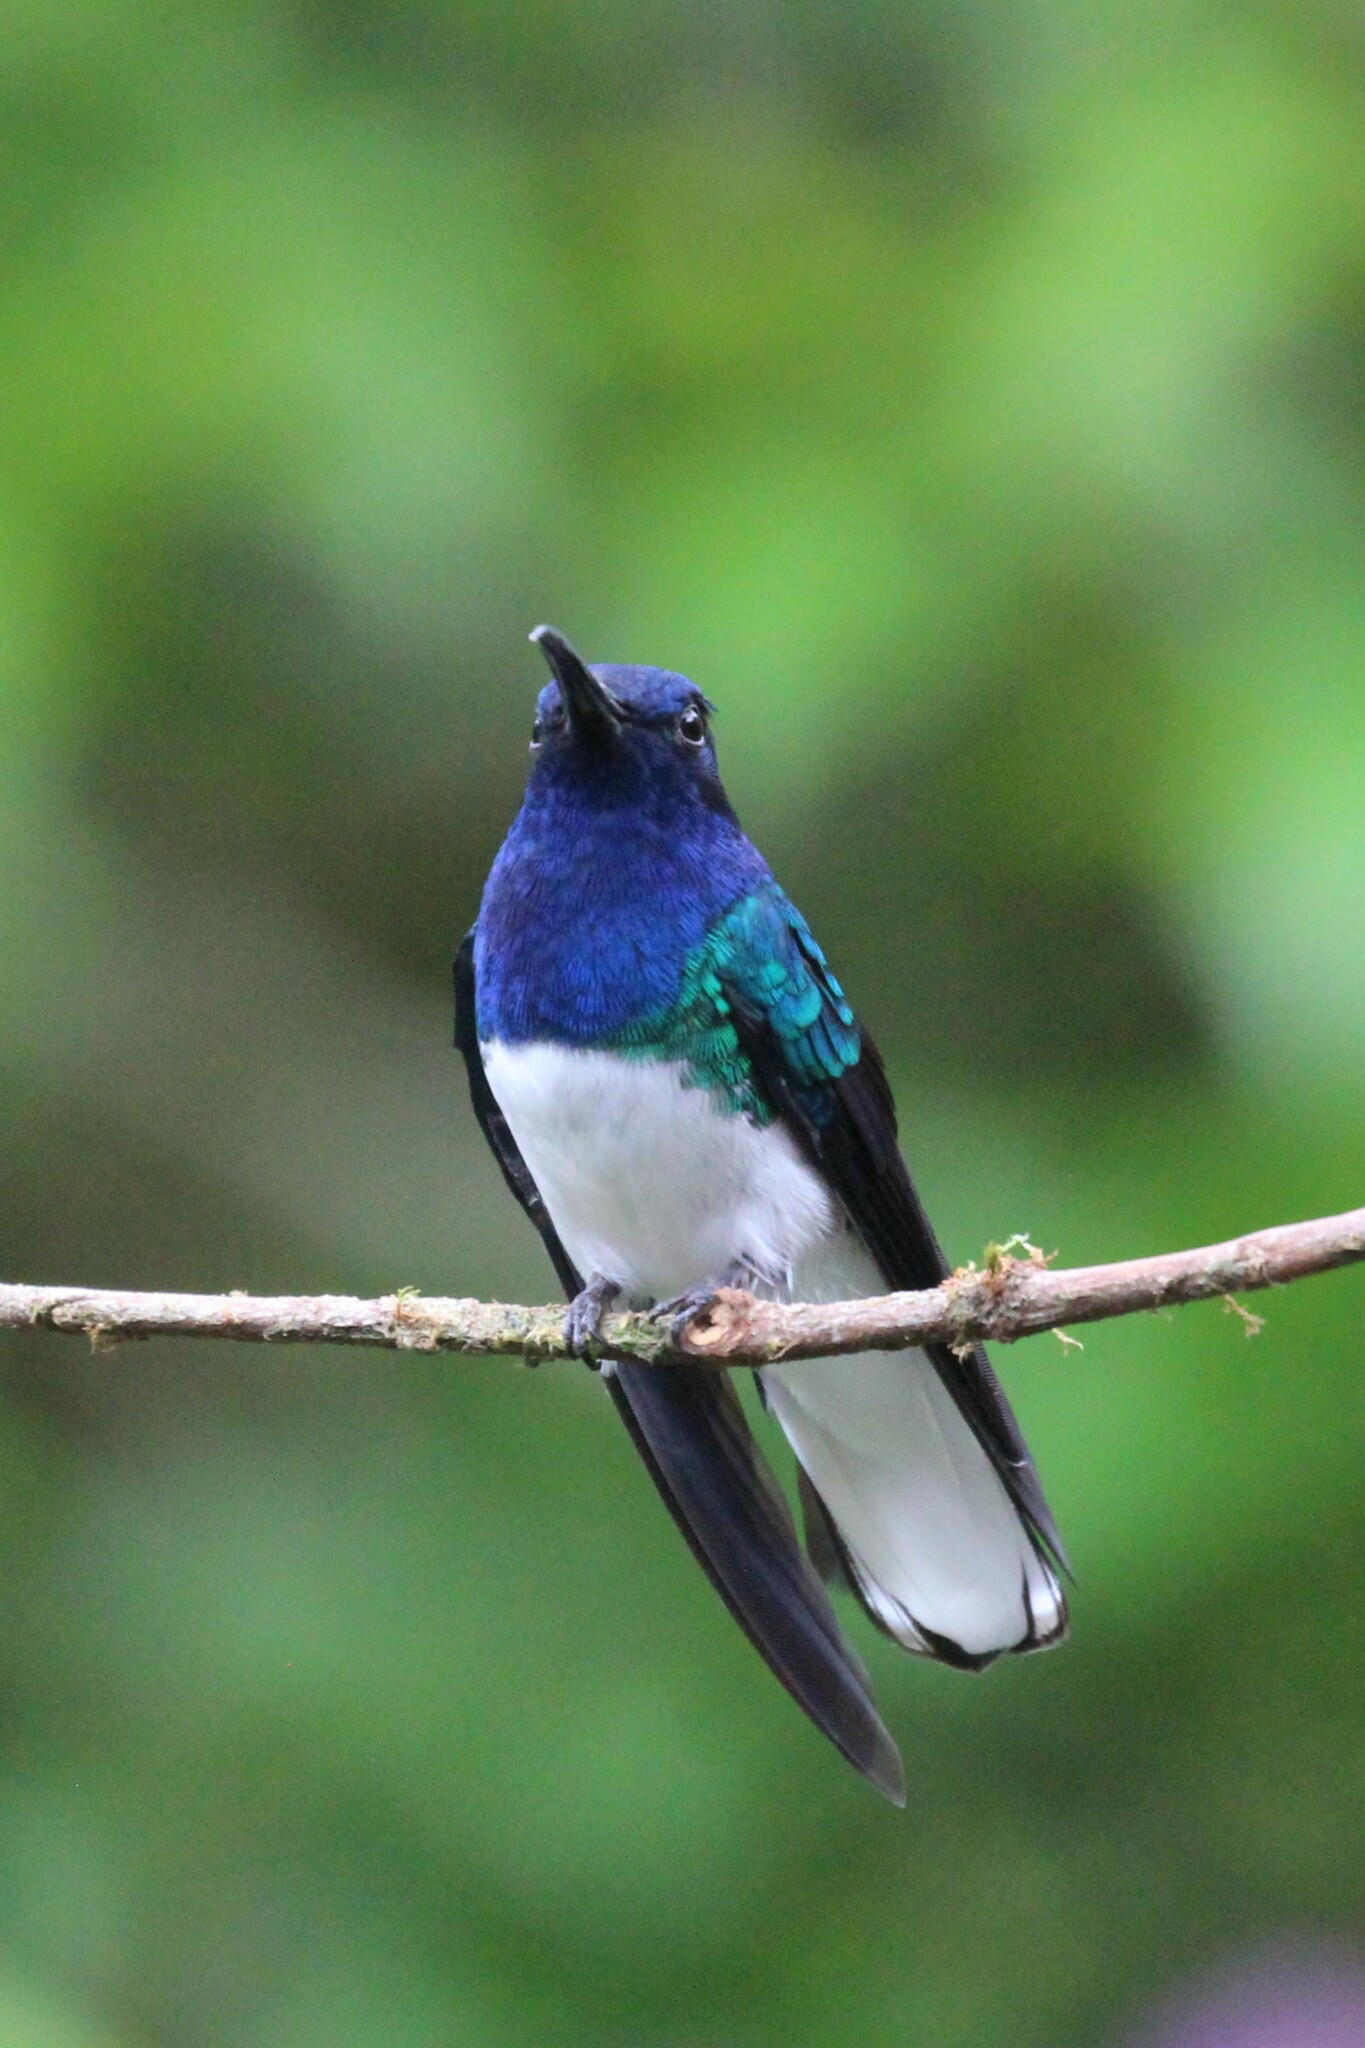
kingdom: Animalia
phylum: Chordata
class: Aves
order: Apodiformes
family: Trochilidae
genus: Florisuga
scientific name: Florisuga mellivora
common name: White-necked jacobin
